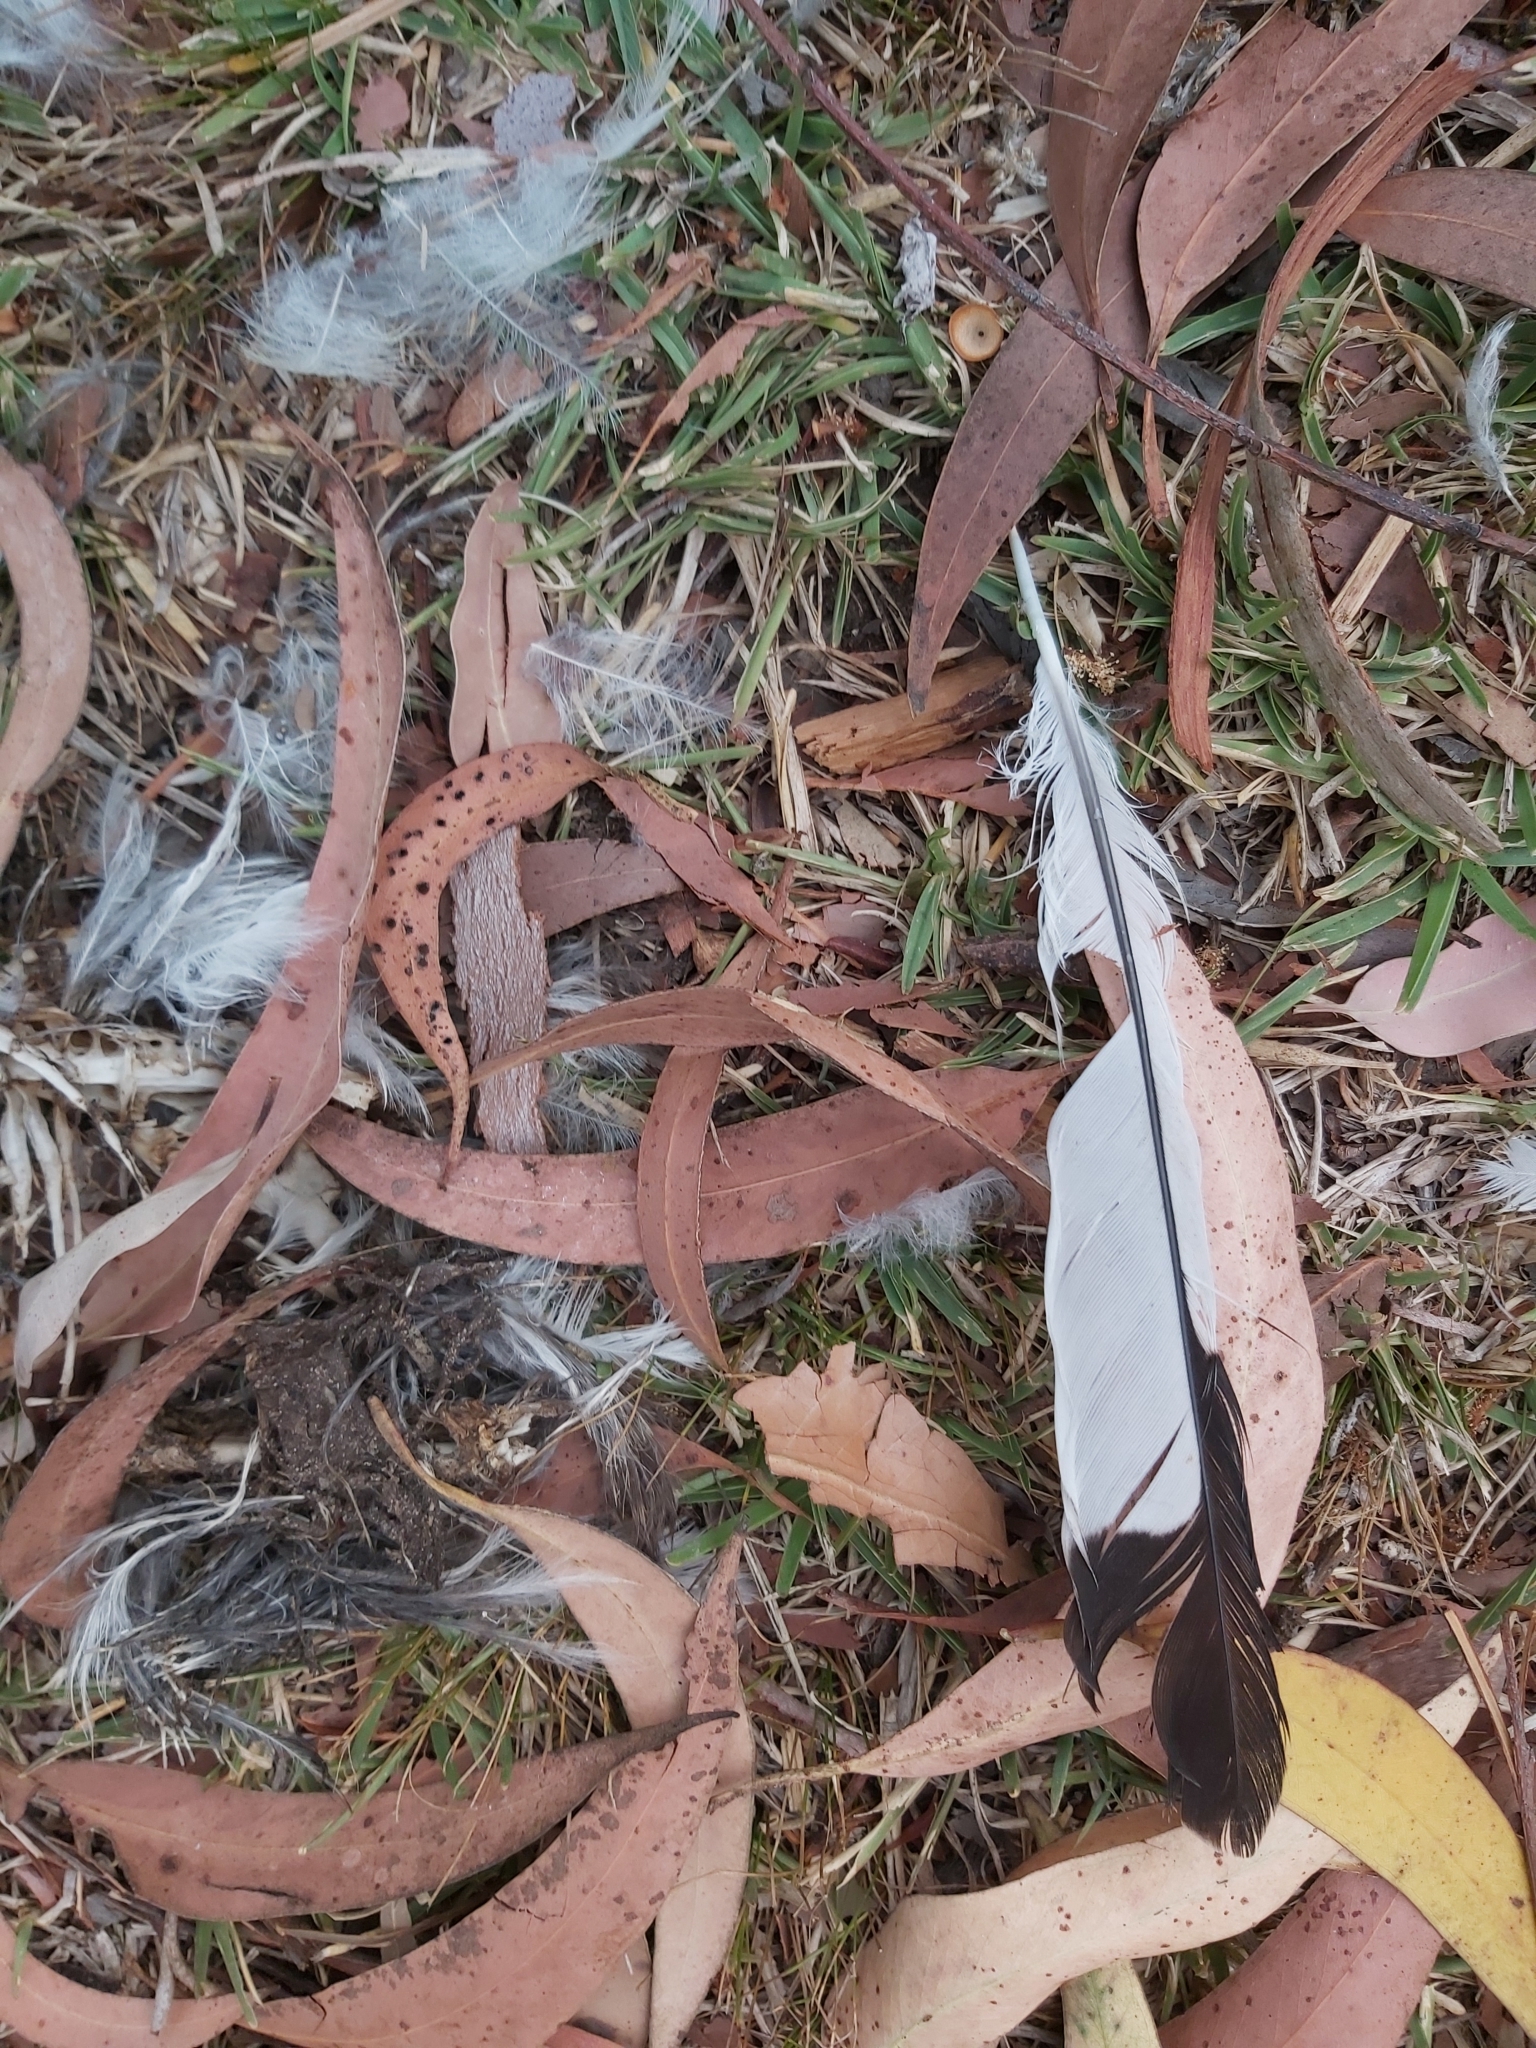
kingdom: Animalia
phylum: Chordata
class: Aves
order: Passeriformes
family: Cracticidae
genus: Gymnorhina
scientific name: Gymnorhina tibicen
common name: Australian magpie
